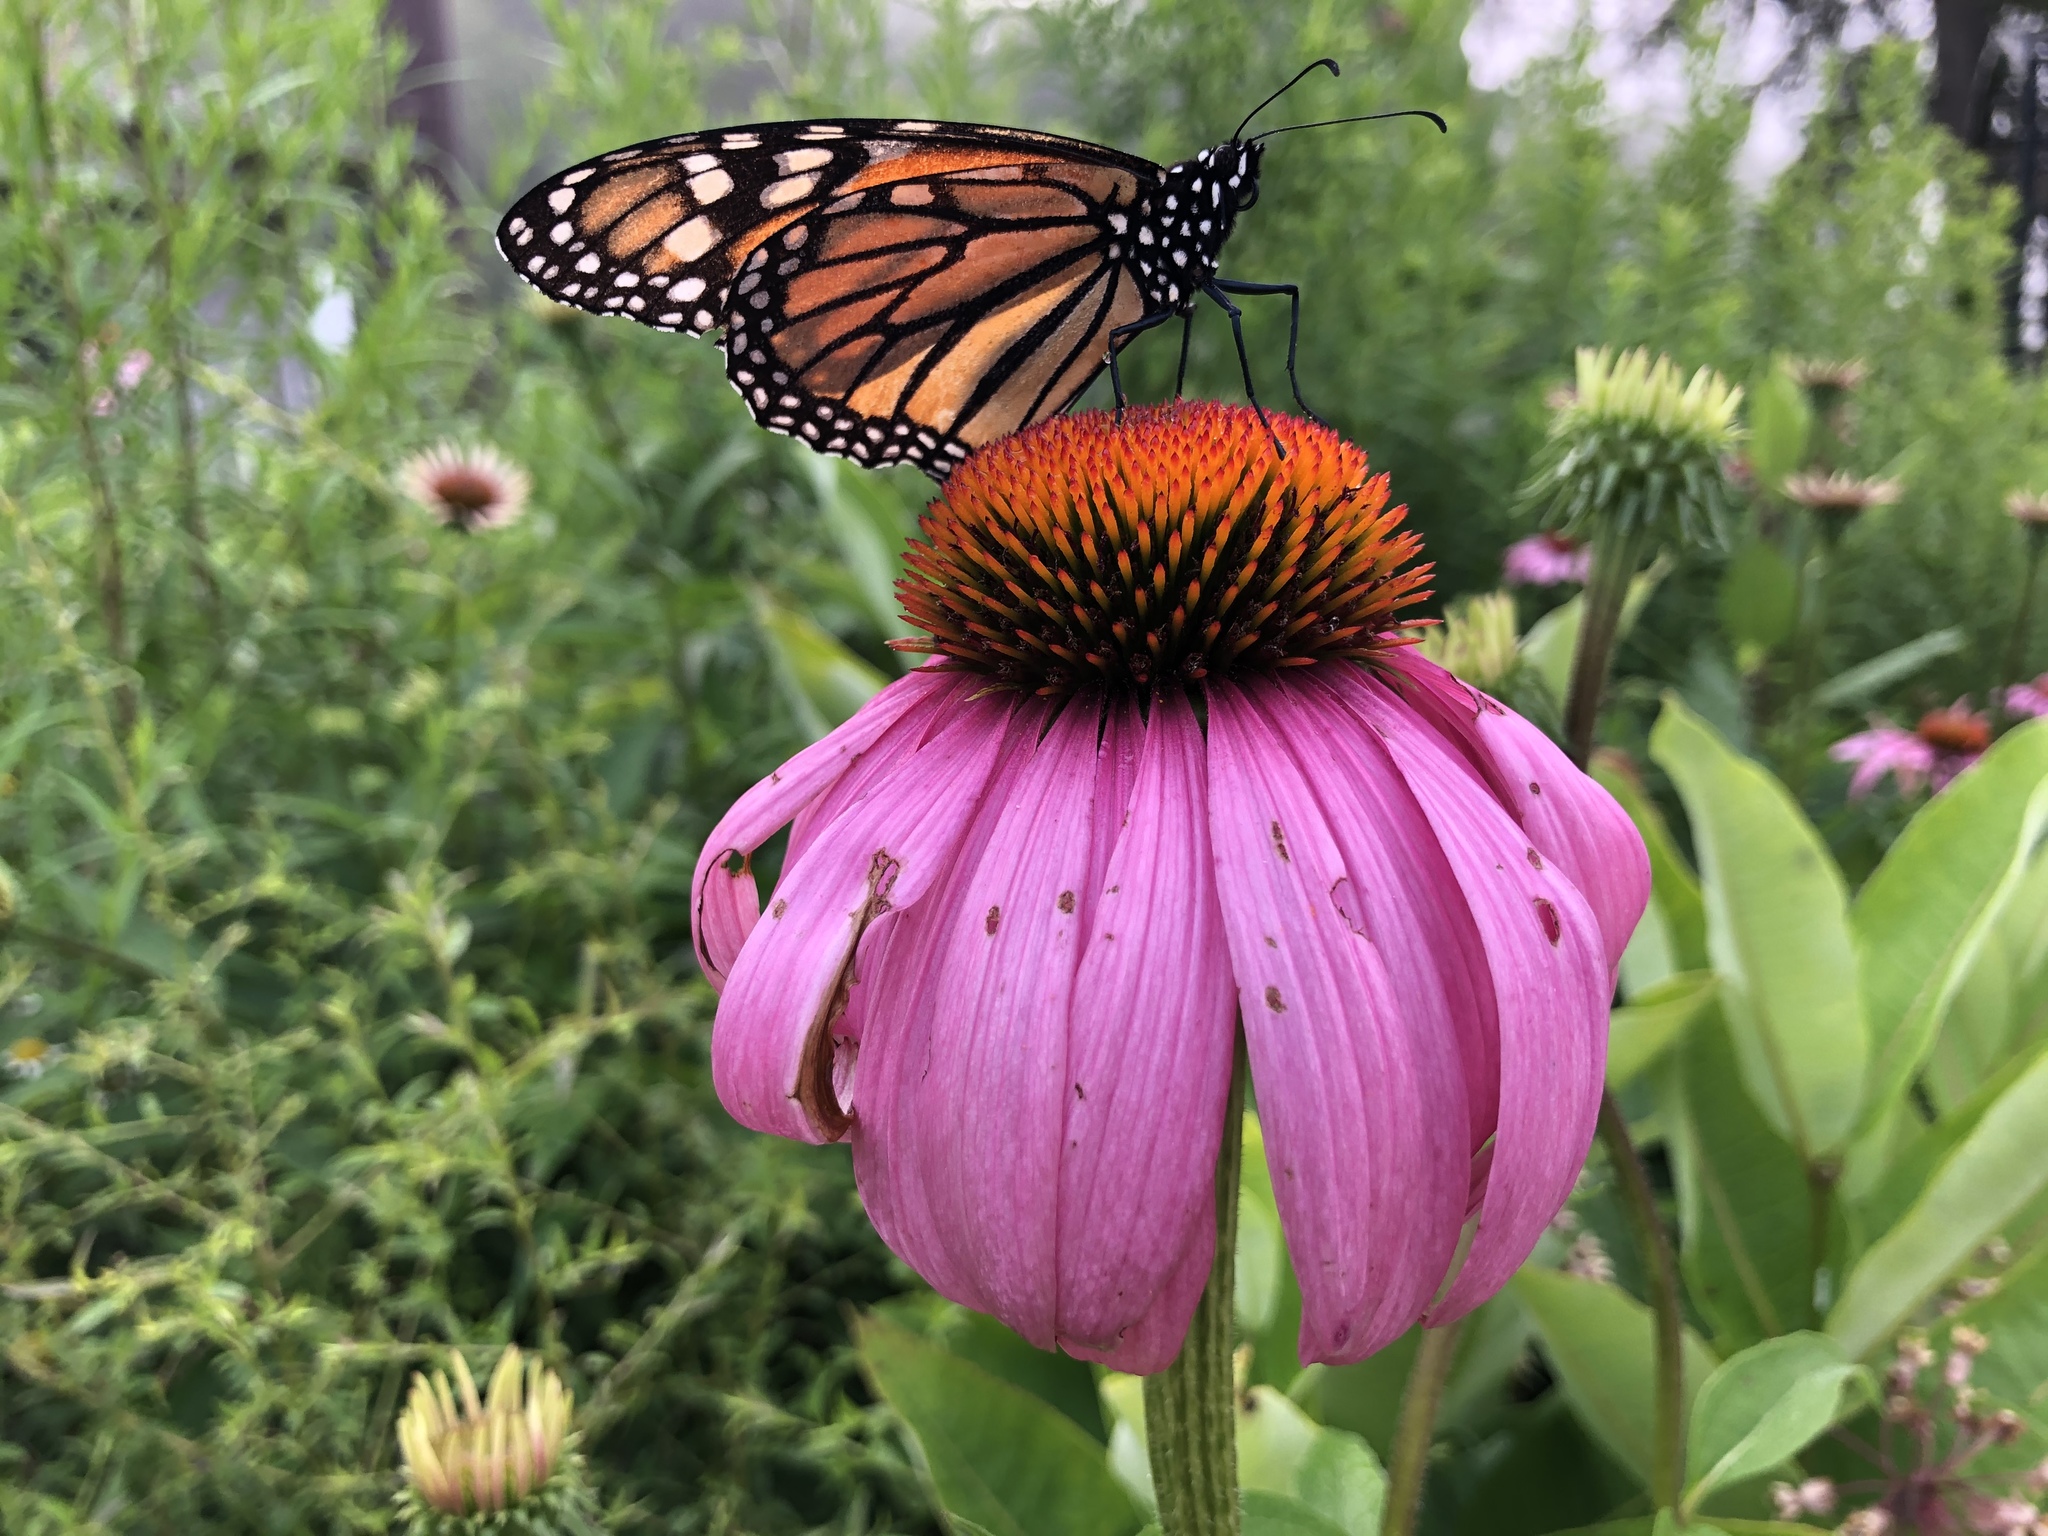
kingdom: Animalia
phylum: Arthropoda
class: Insecta
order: Lepidoptera
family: Nymphalidae
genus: Danaus
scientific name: Danaus plexippus
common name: Monarch
